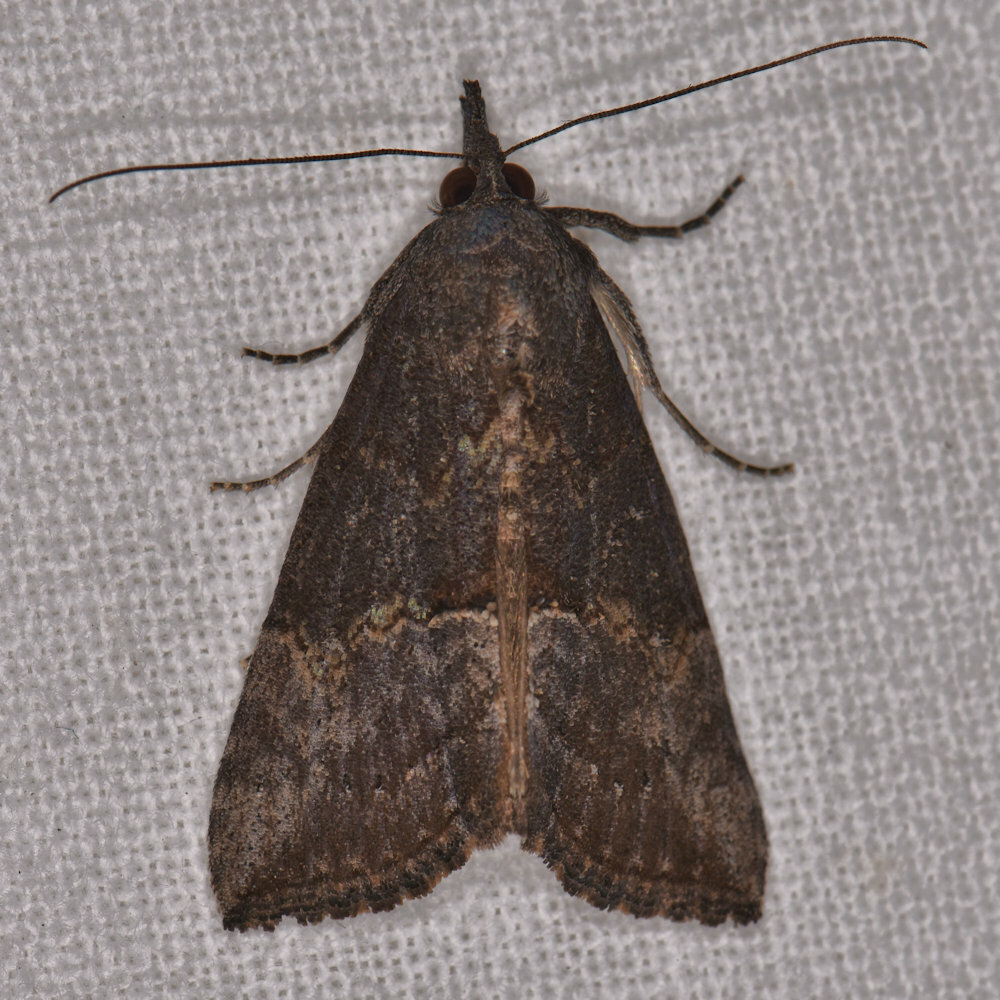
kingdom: Animalia
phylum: Arthropoda
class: Insecta
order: Lepidoptera
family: Erebidae
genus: Hypena
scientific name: Hypena scabra
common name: Green cloverworm
